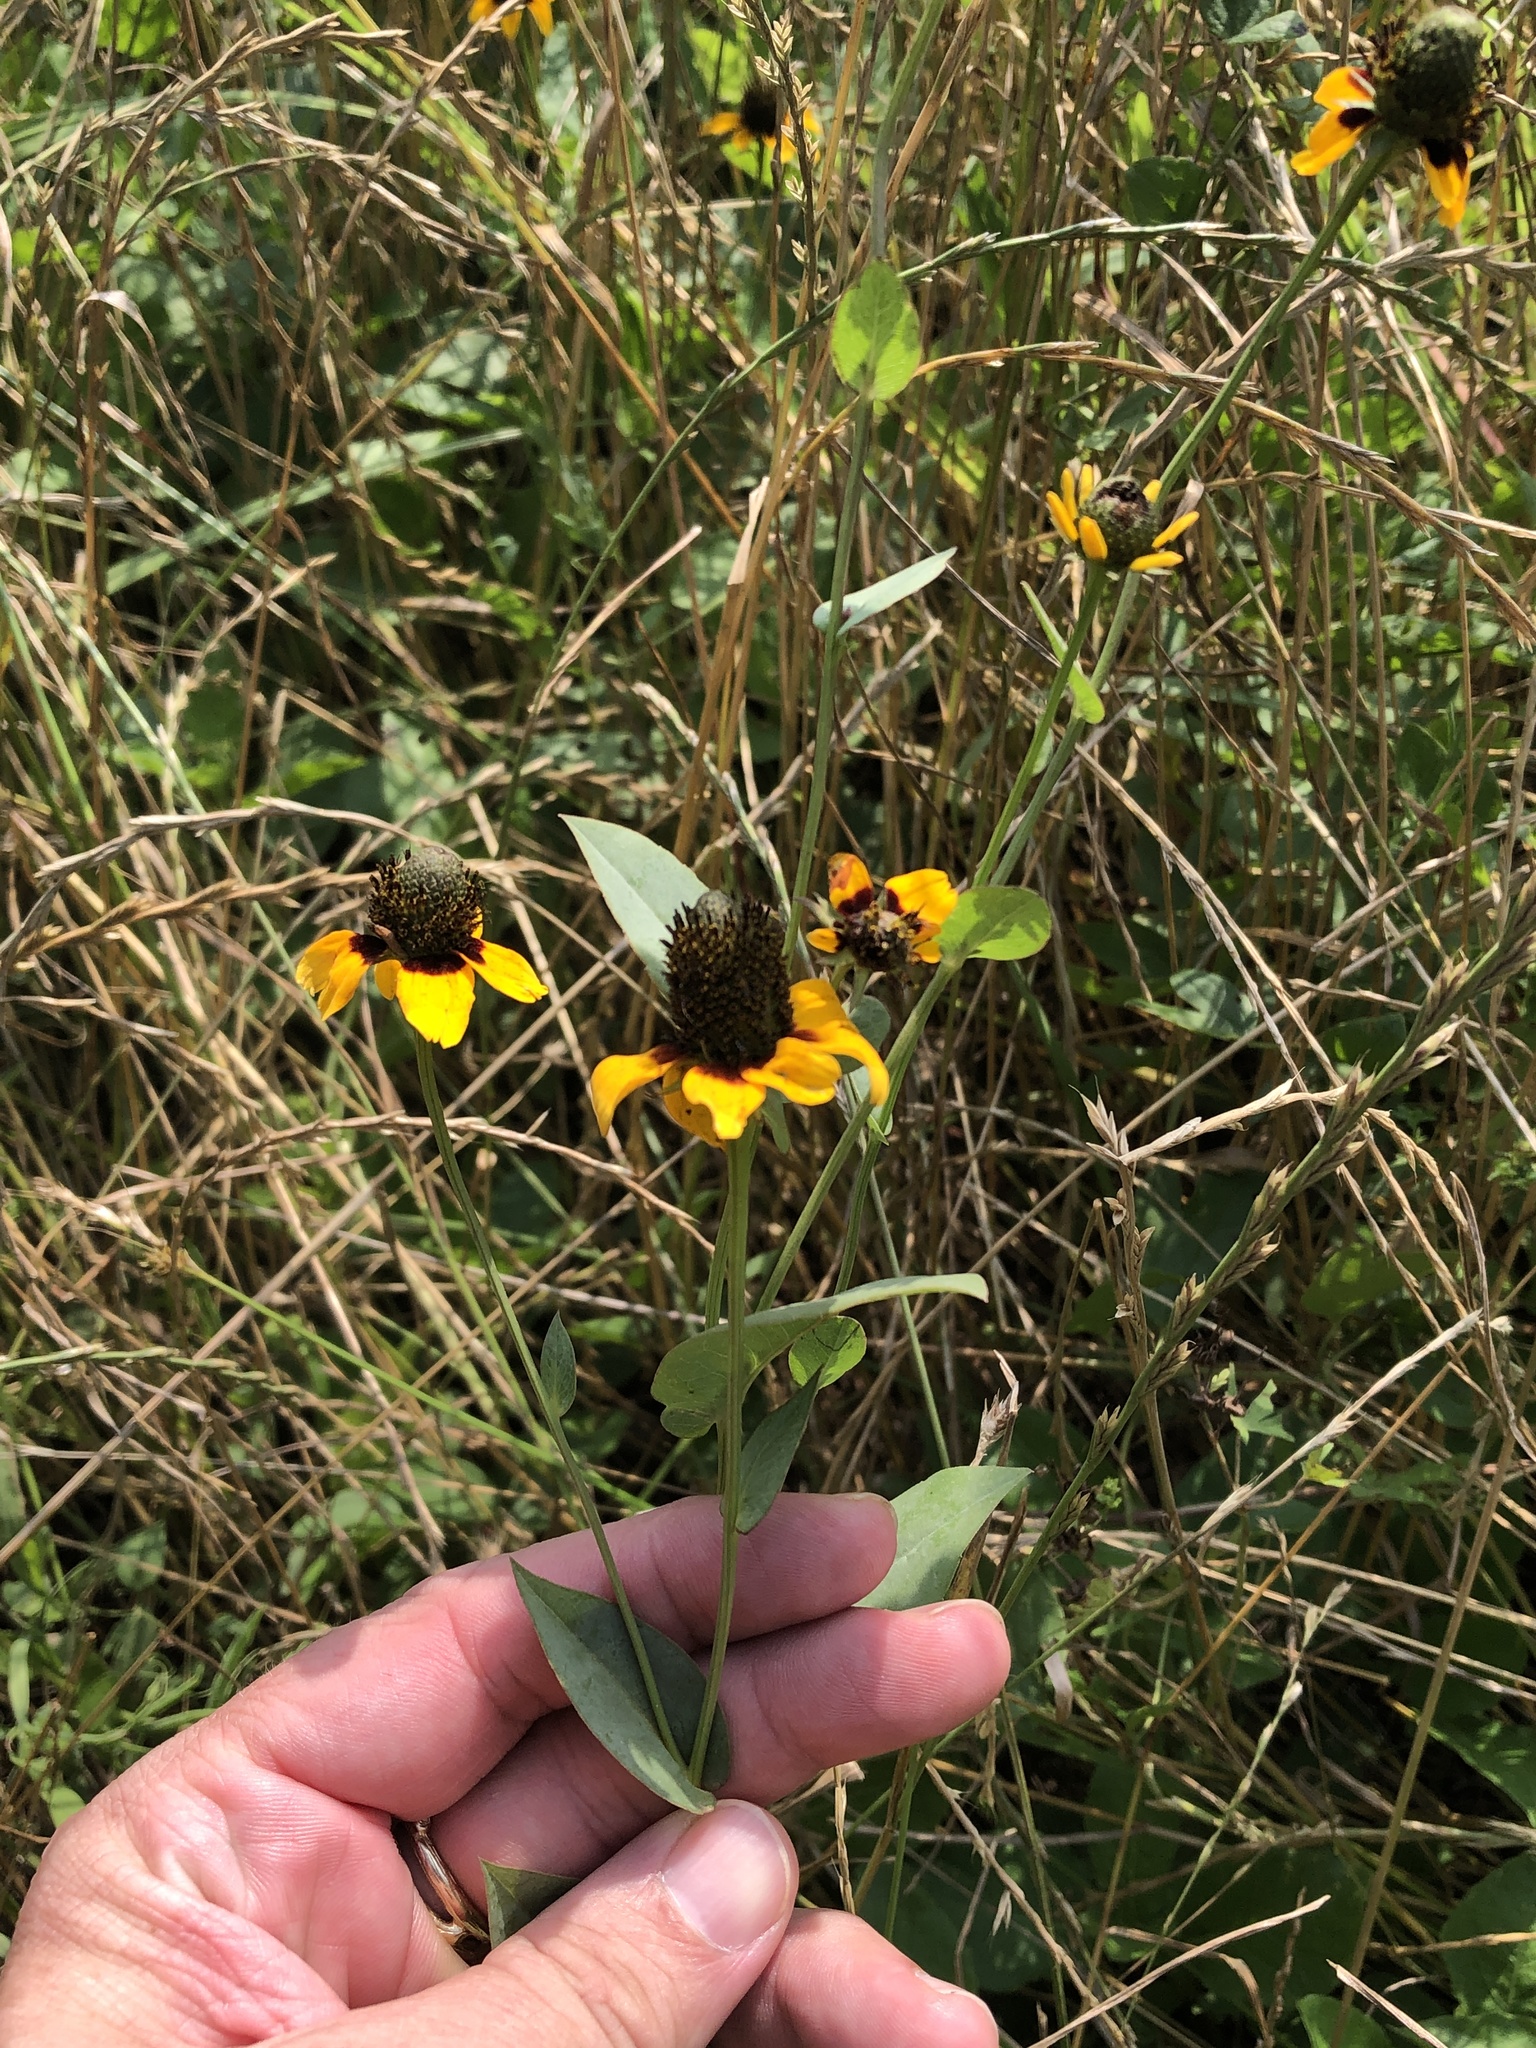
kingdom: Plantae
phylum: Tracheophyta
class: Magnoliopsida
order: Asterales
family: Asteraceae
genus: Rudbeckia
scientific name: Rudbeckia amplexicaulis
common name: Clasping-leaf coneflower
